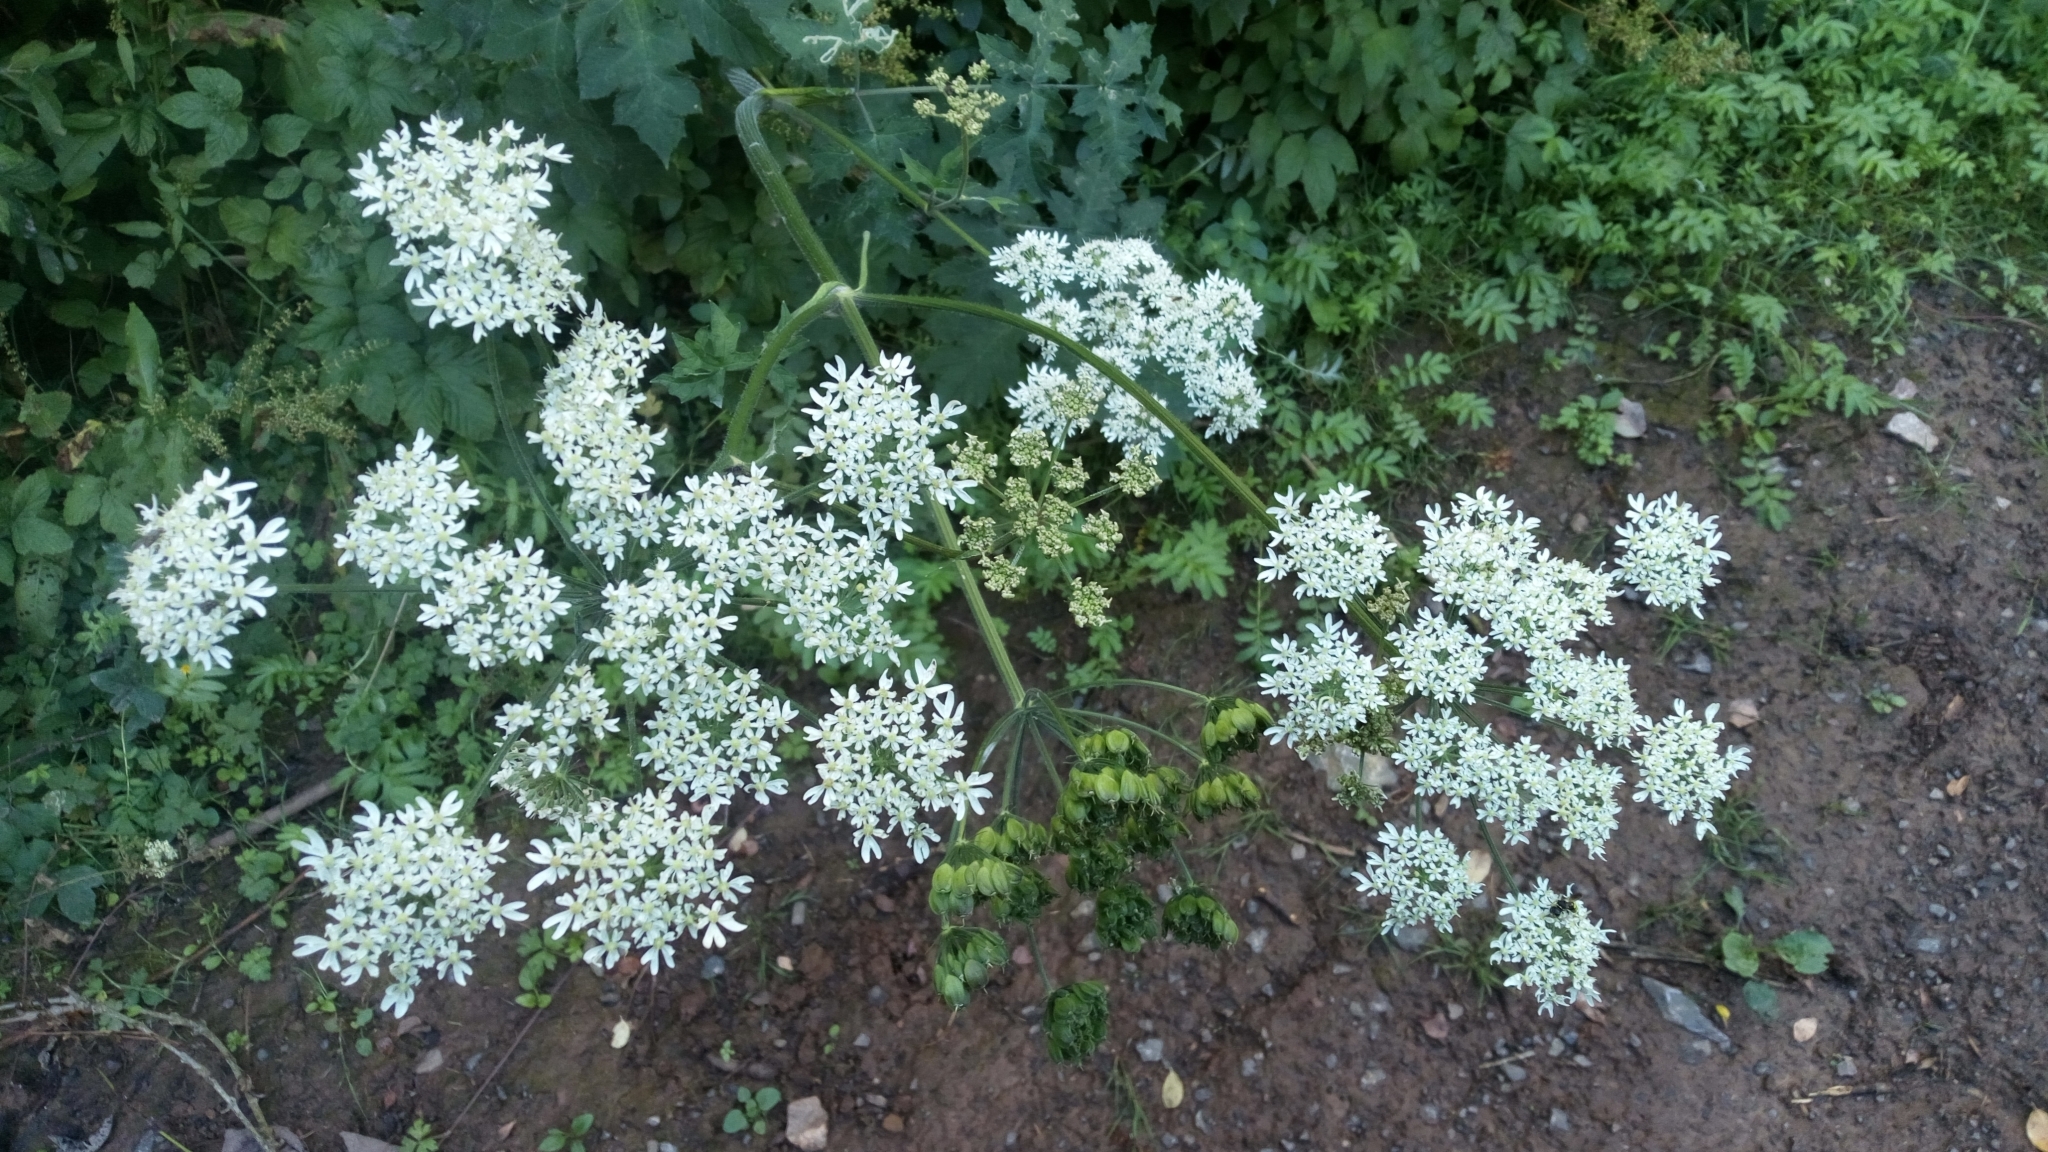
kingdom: Plantae
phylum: Tracheophyta
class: Magnoliopsida
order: Apiales
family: Apiaceae
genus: Heracleum
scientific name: Heracleum sphondylium
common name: Hogweed
